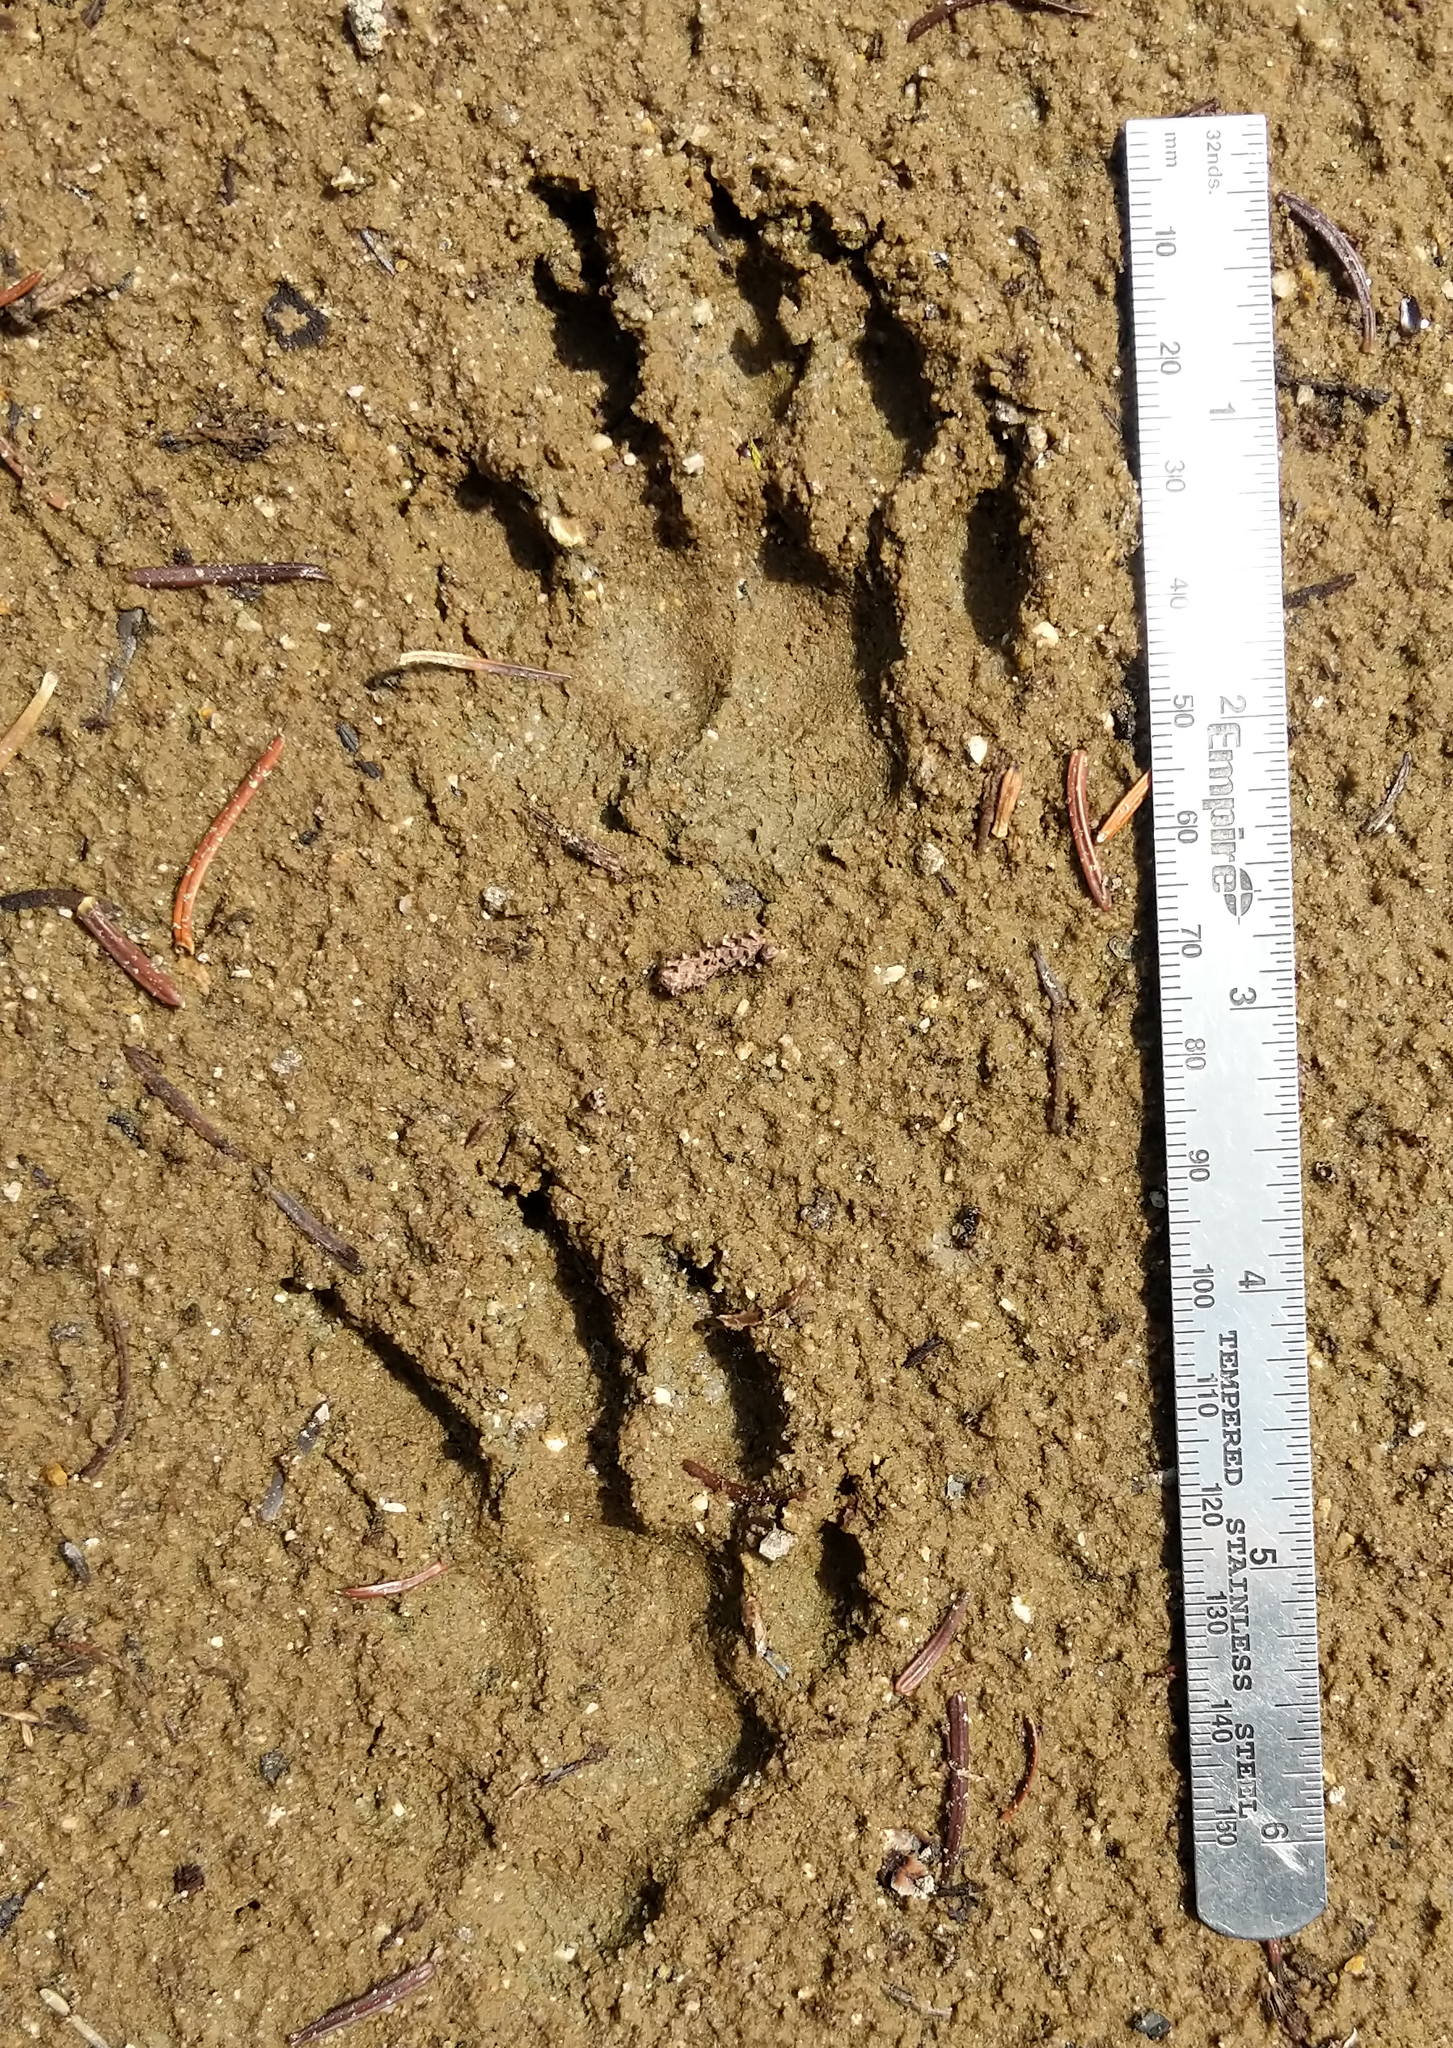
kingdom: Animalia
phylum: Chordata
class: Mammalia
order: Rodentia
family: Sciuridae
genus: Marmota
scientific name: Marmota caligata
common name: Hoary marmot
